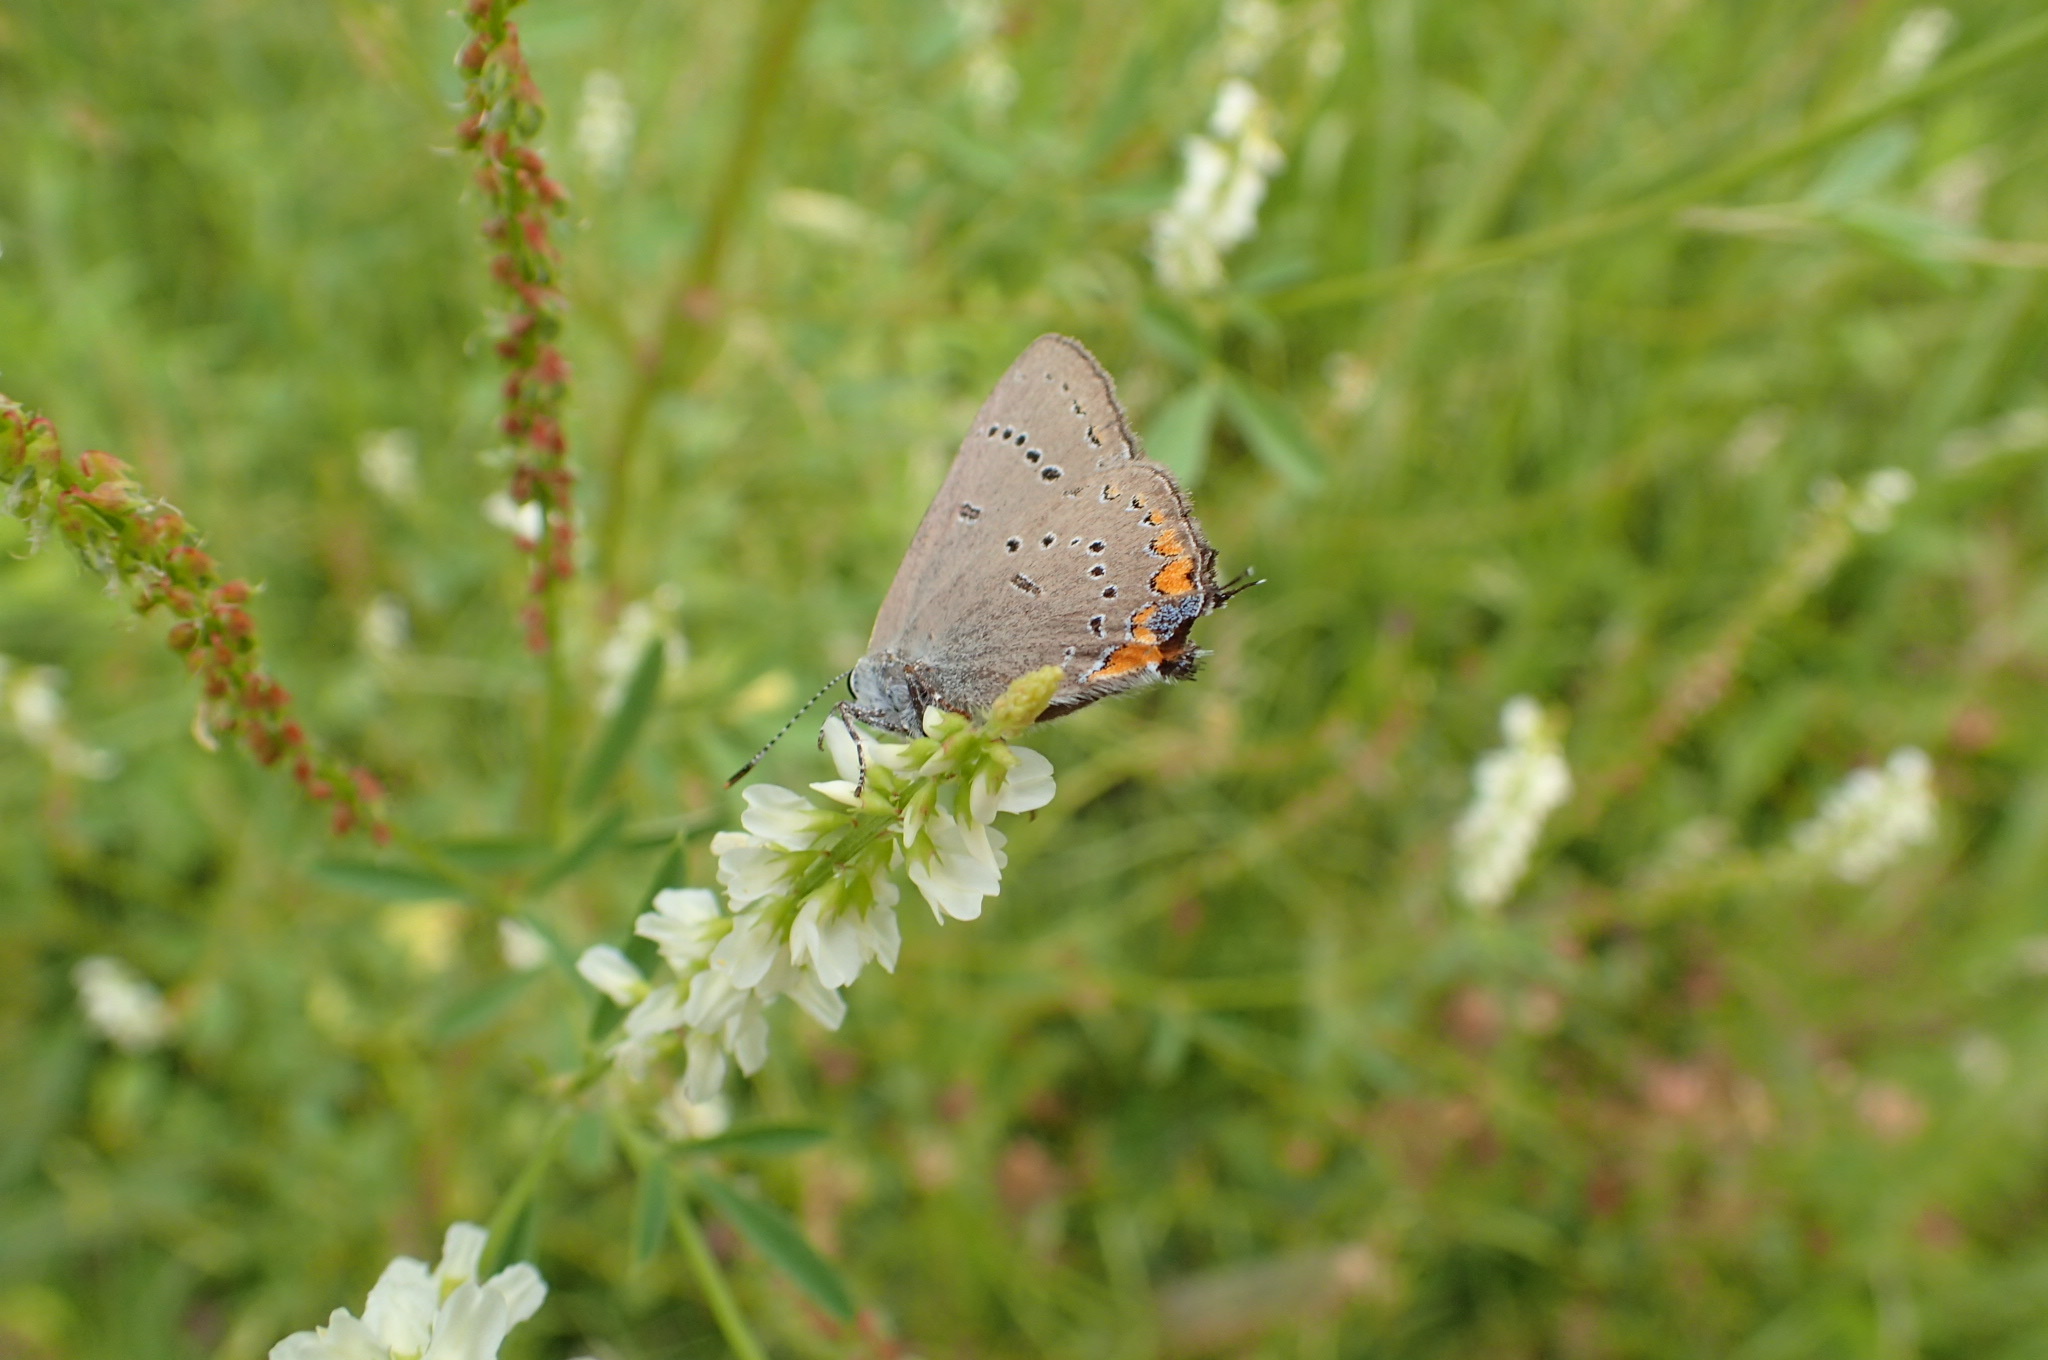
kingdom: Animalia
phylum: Arthropoda
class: Insecta
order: Lepidoptera
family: Lycaenidae
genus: Strymon
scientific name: Strymon acadica
